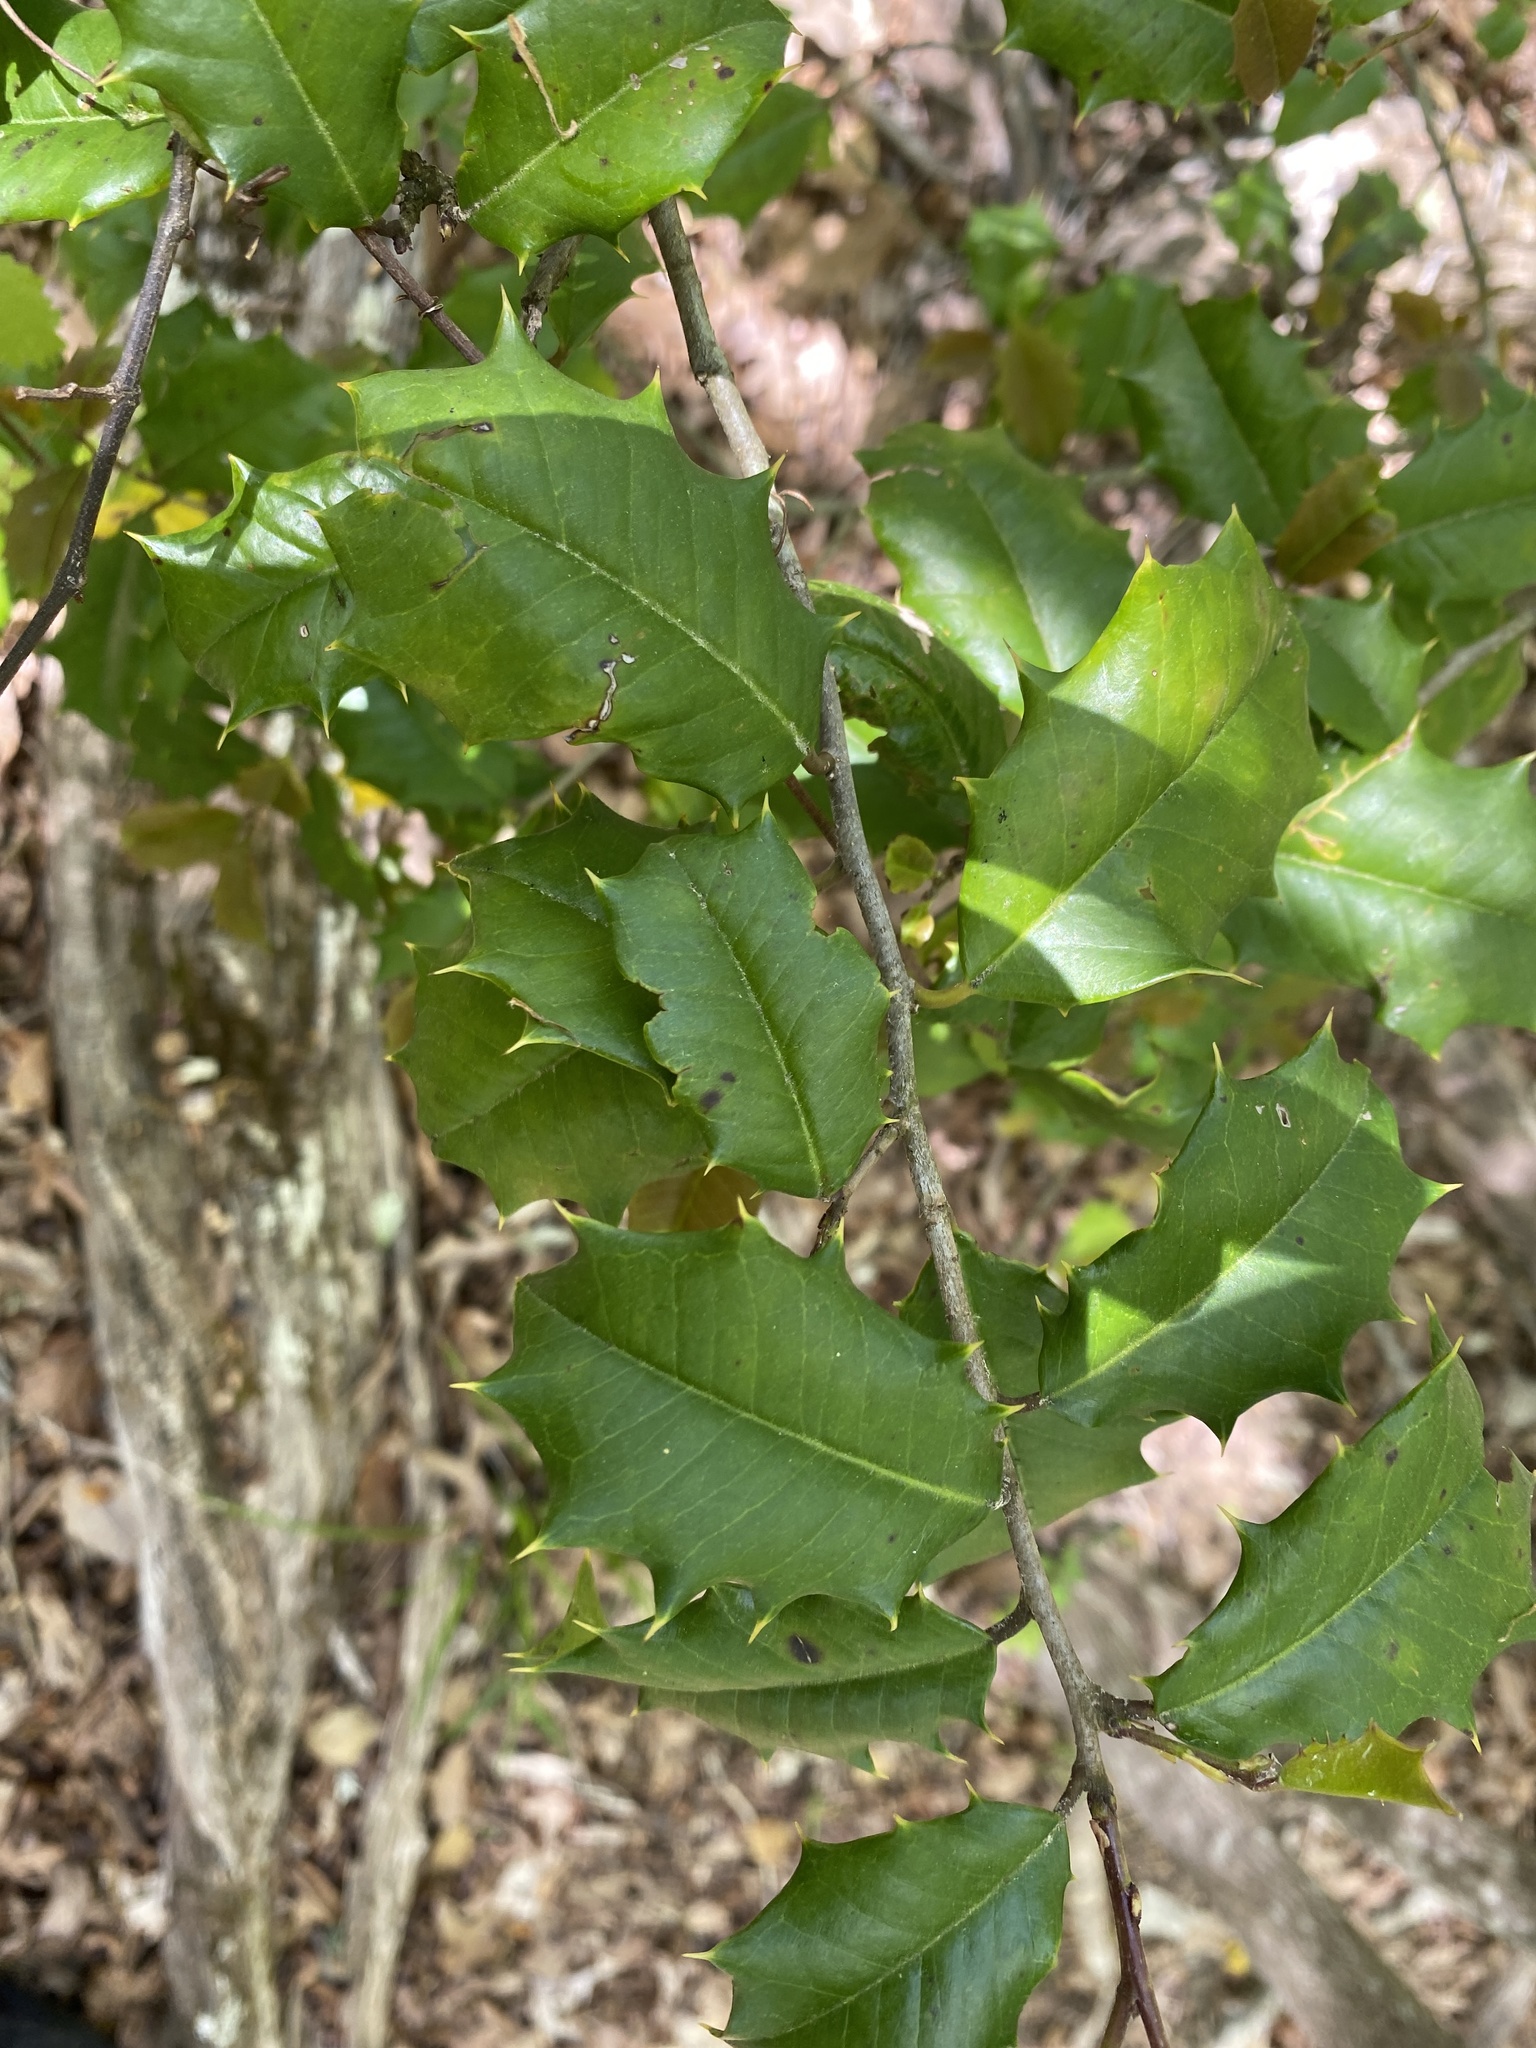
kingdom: Plantae
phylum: Tracheophyta
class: Magnoliopsida
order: Aquifoliales
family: Aquifoliaceae
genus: Ilex
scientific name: Ilex opaca
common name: American holly
